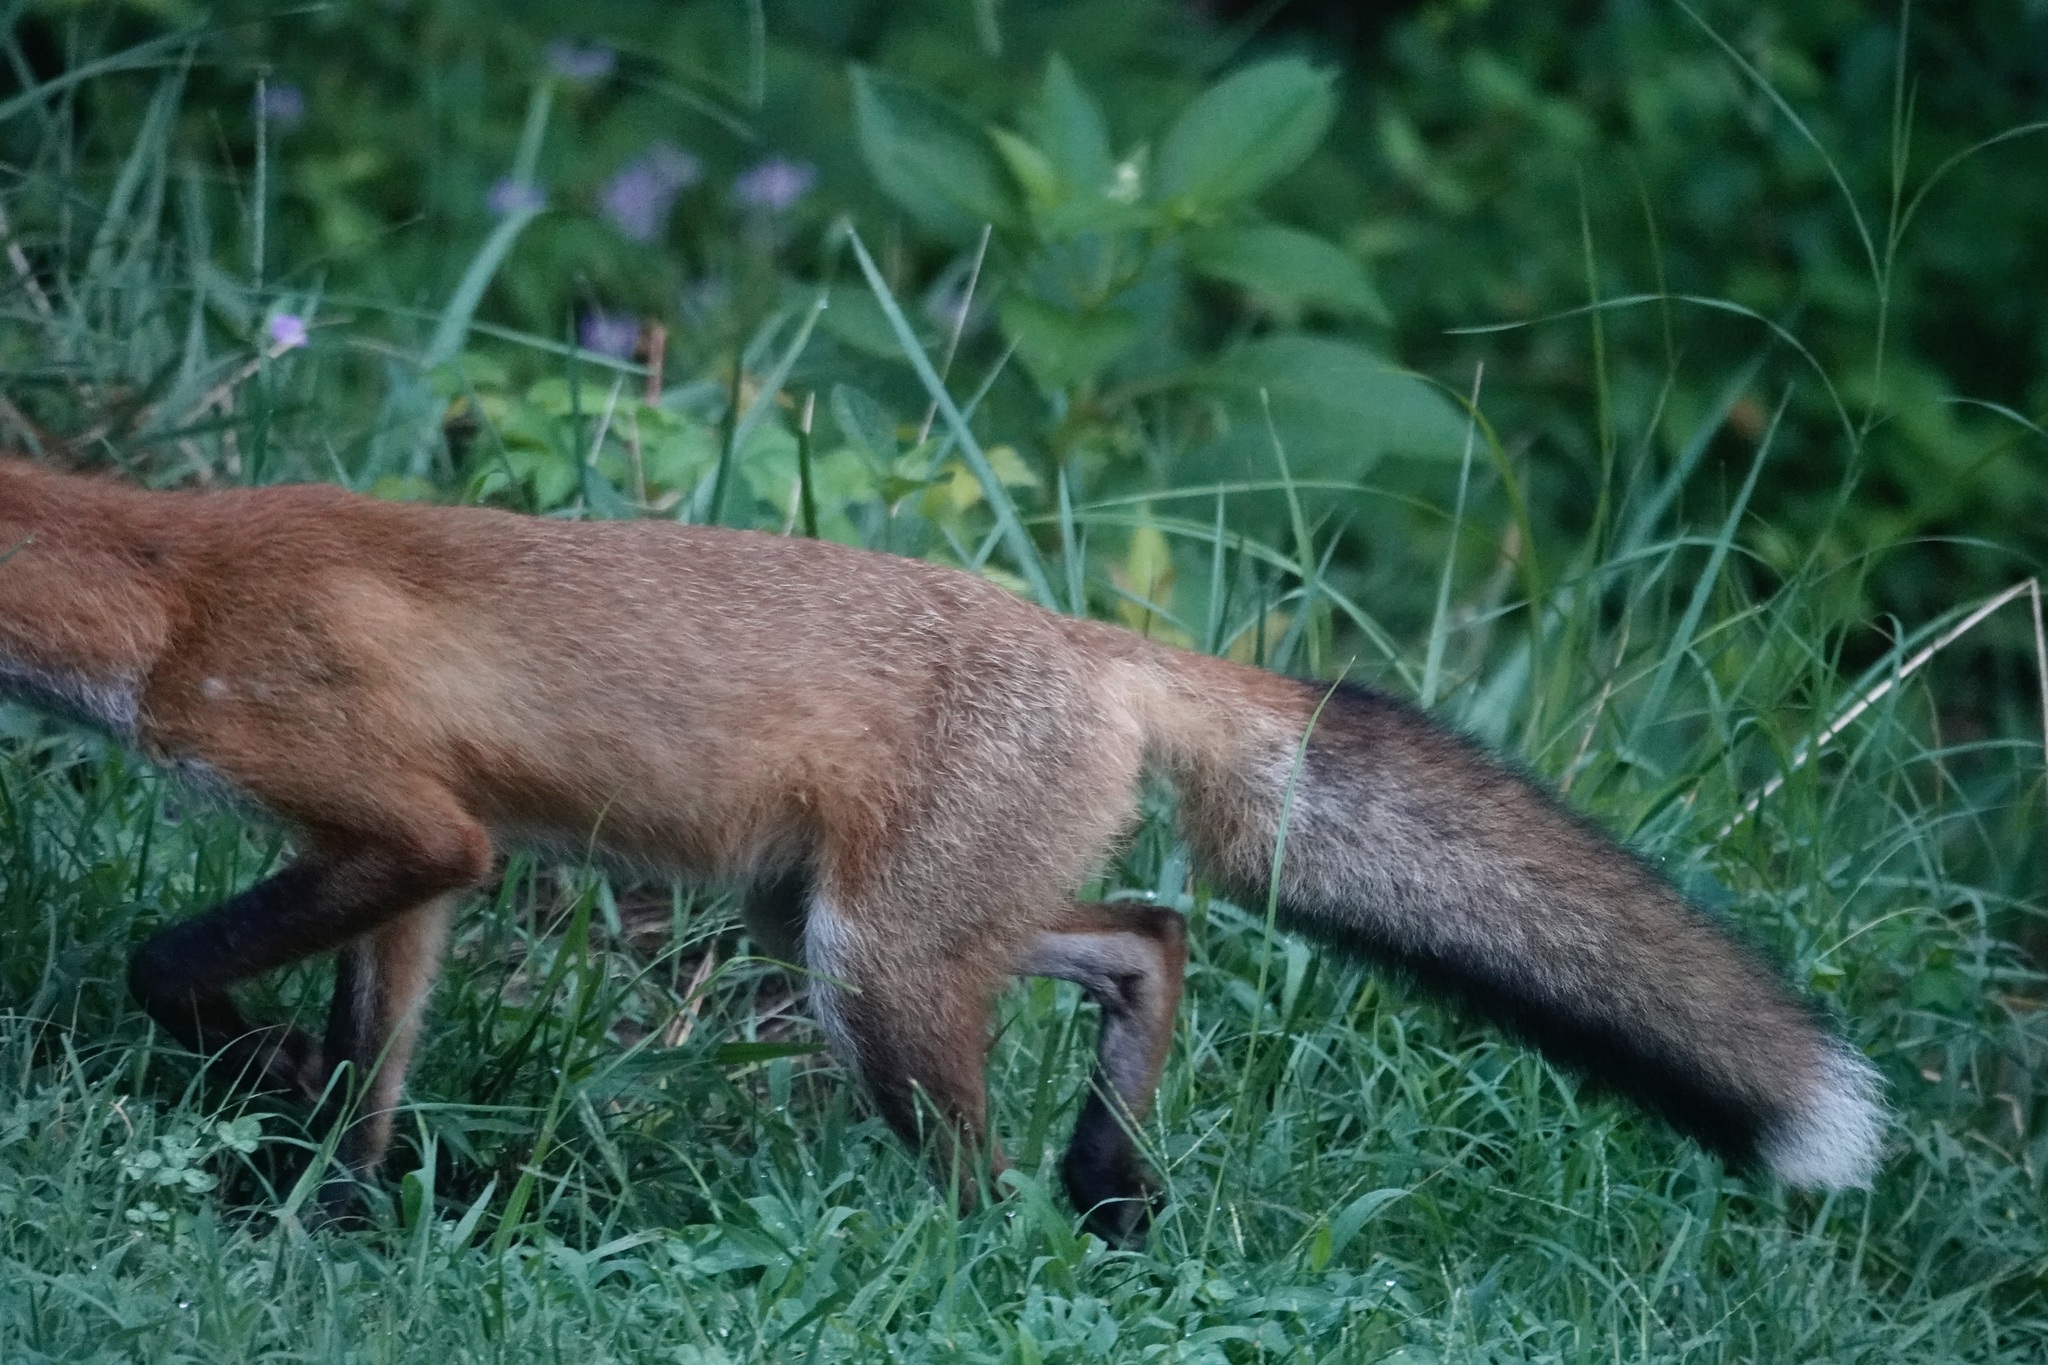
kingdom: Animalia
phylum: Chordata
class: Mammalia
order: Carnivora
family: Canidae
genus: Vulpes
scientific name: Vulpes vulpes
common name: Red fox
